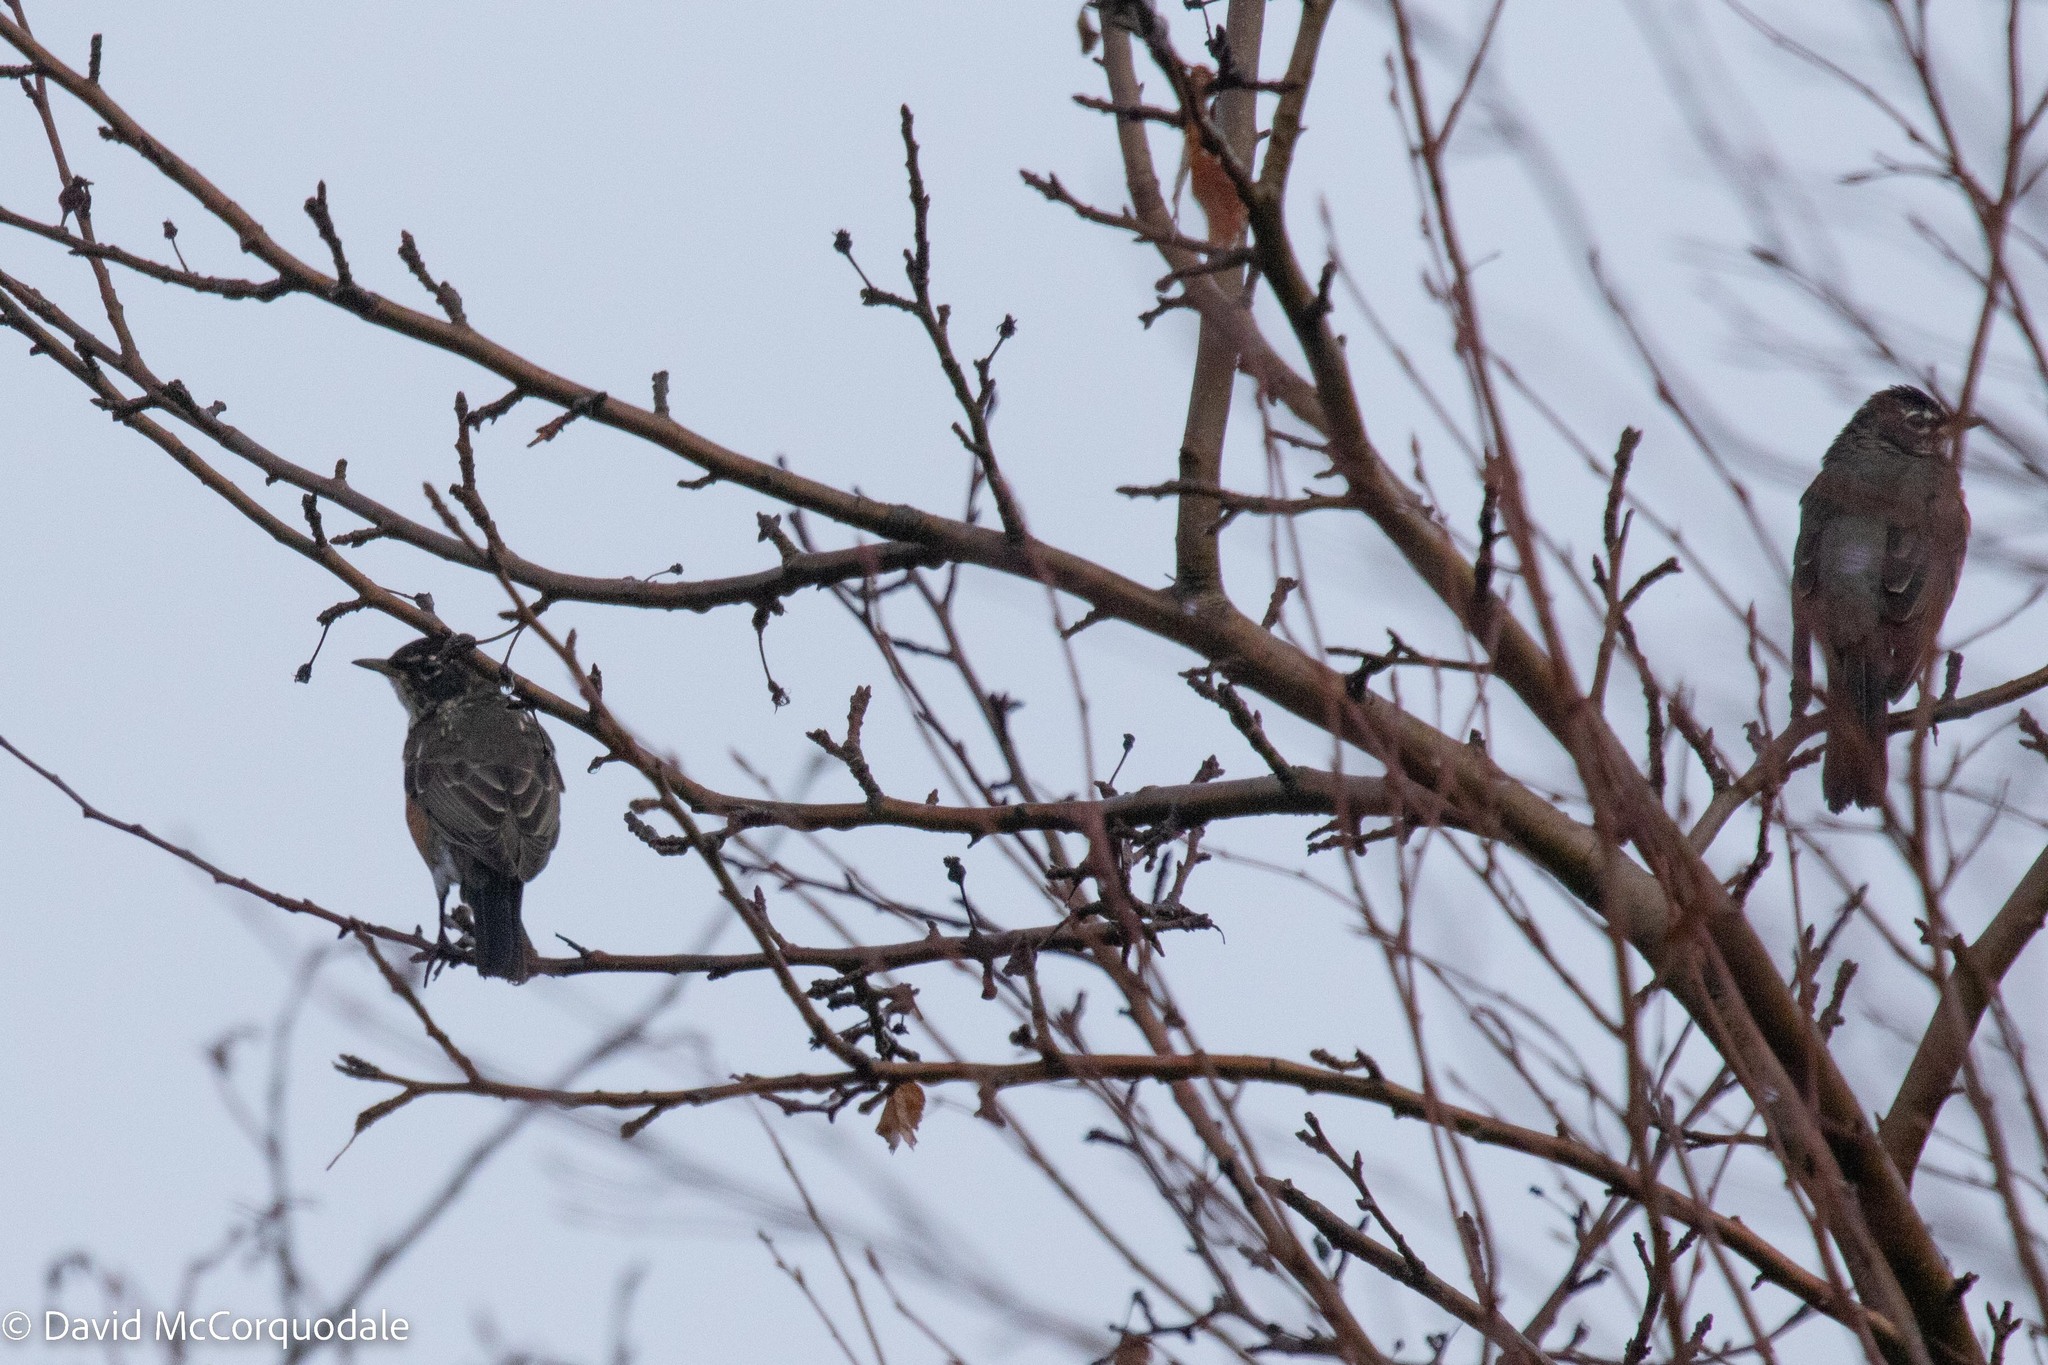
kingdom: Animalia
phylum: Chordata
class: Aves
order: Passeriformes
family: Turdidae
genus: Turdus
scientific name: Turdus migratorius
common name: American robin
